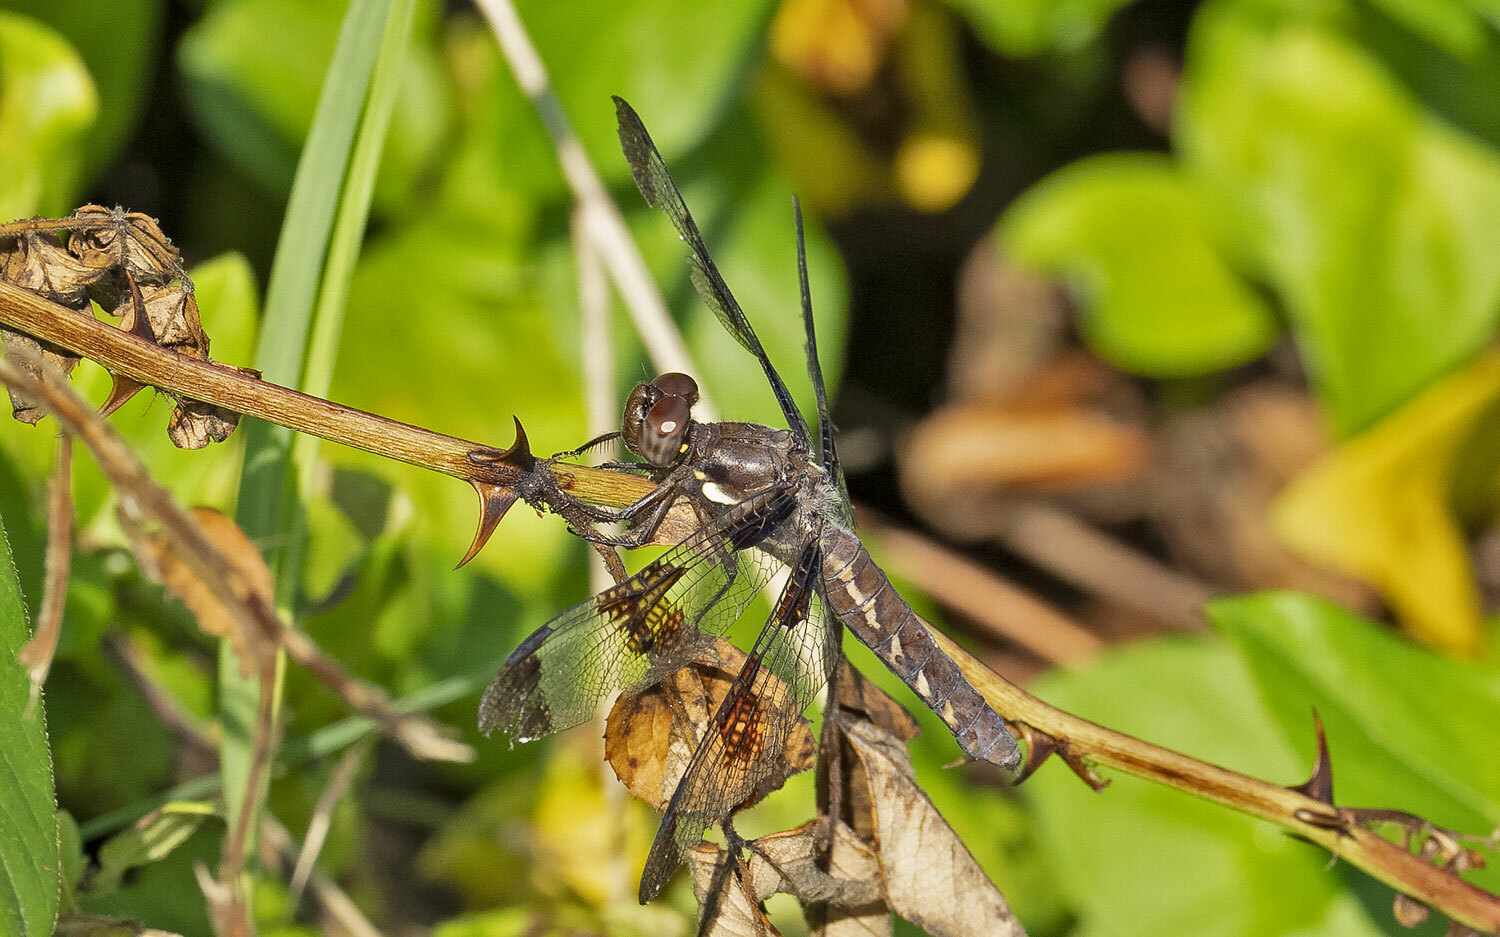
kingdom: Animalia
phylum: Arthropoda
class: Insecta
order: Odonata
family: Libellulidae
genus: Plathemis
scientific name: Plathemis lydia
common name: Common whitetail
